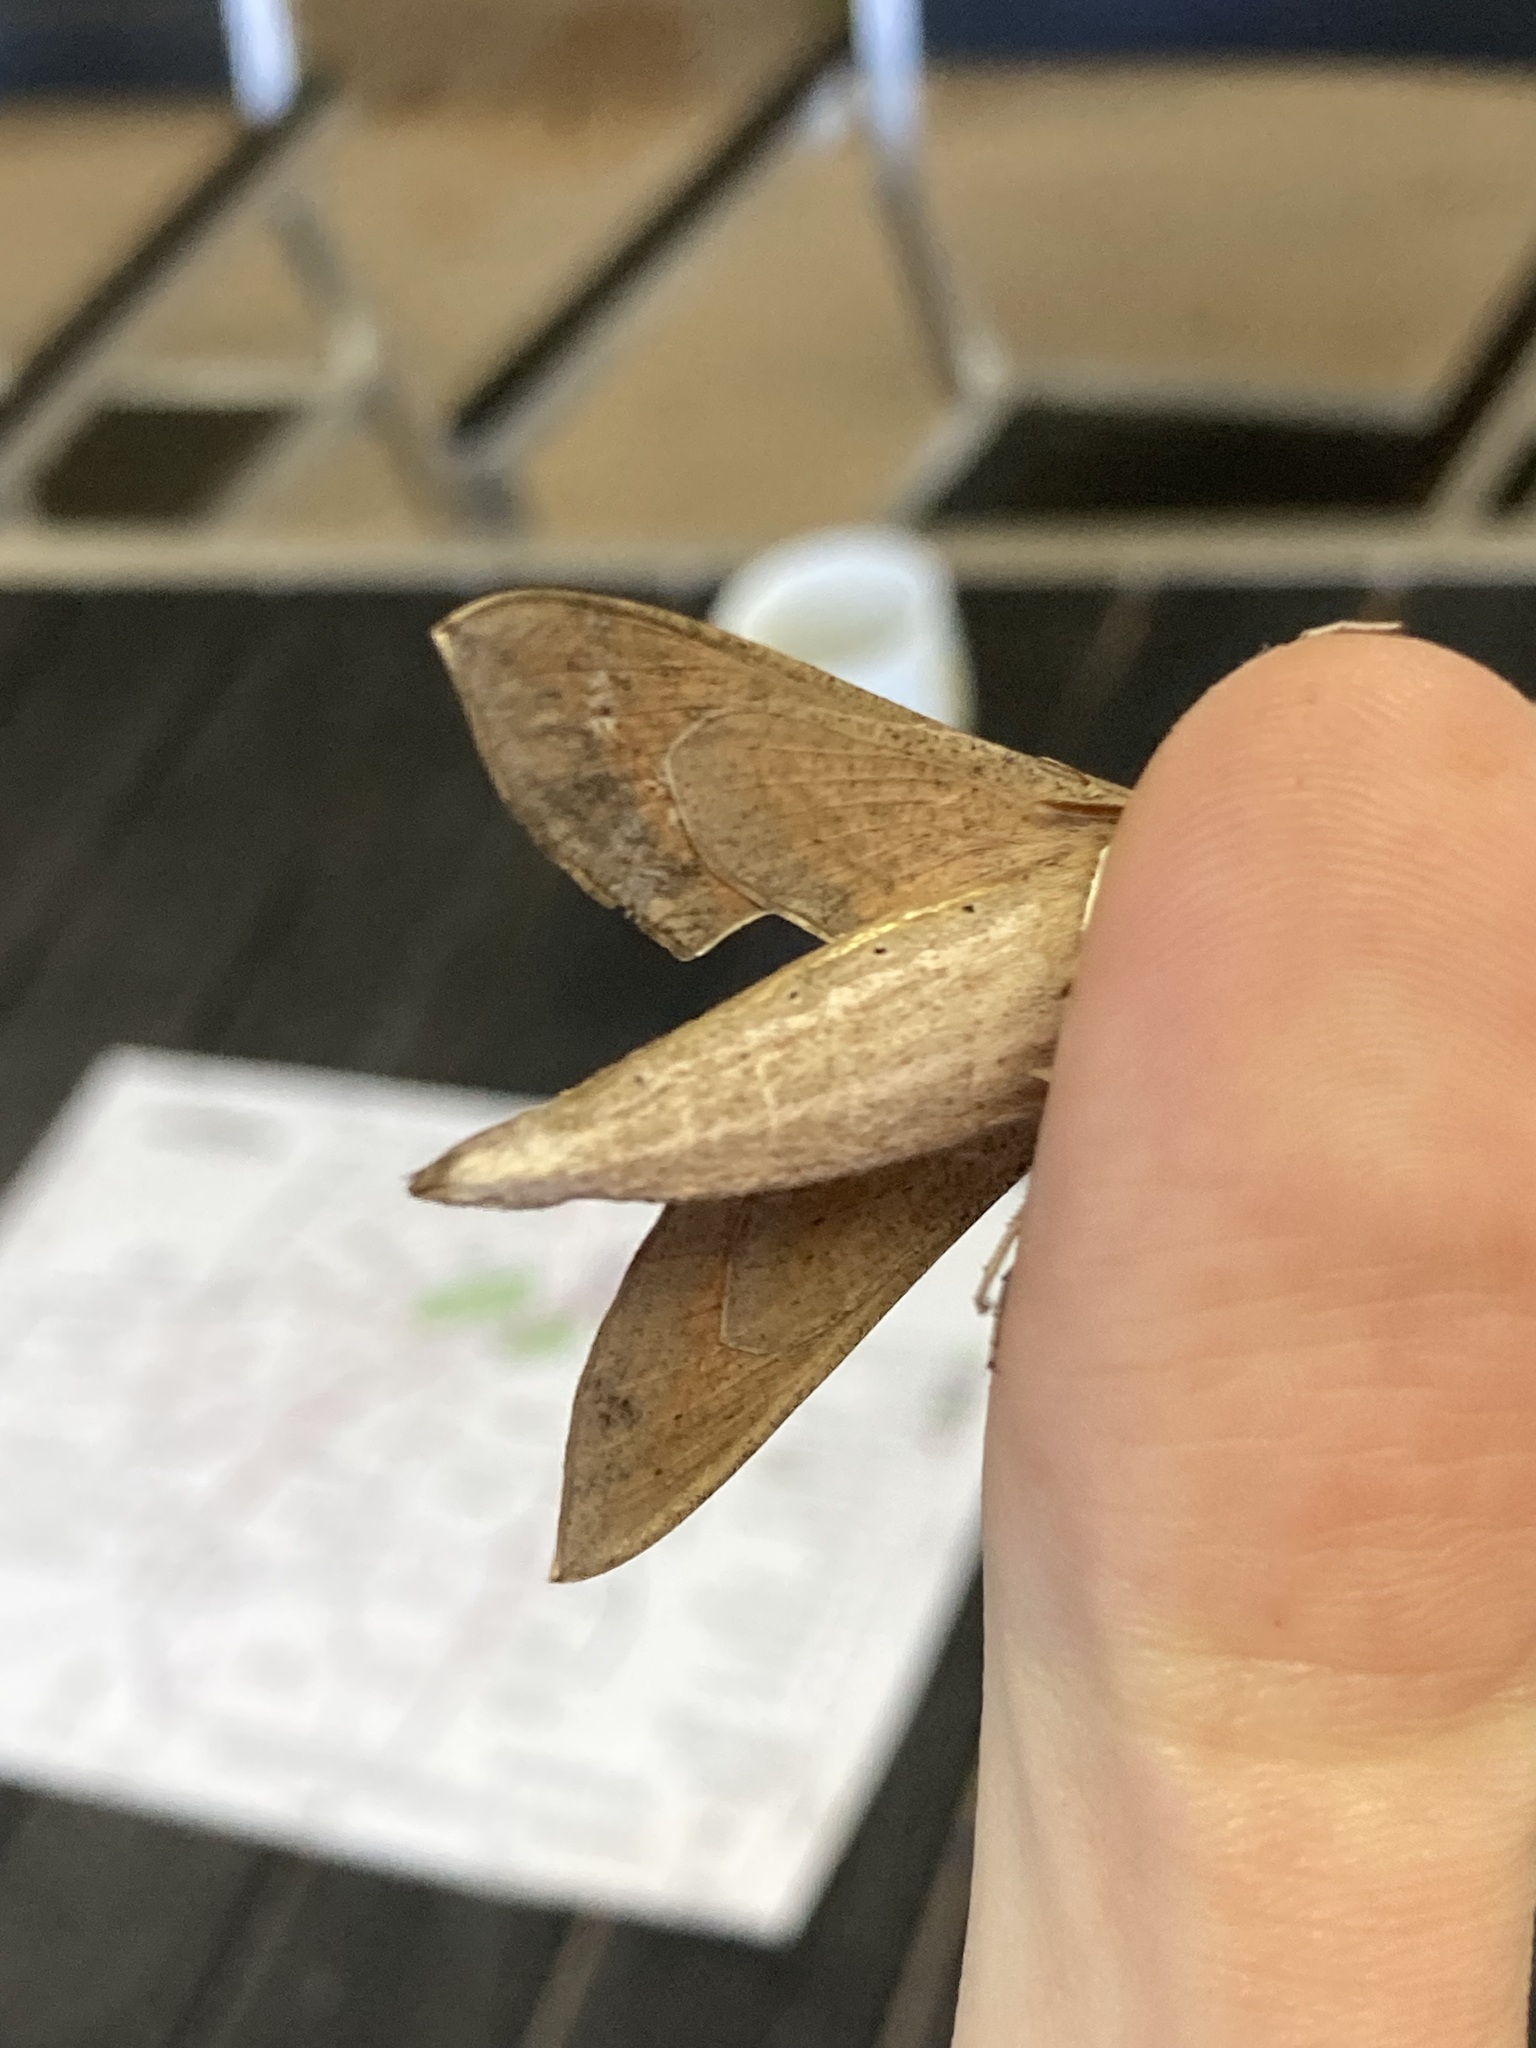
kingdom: Animalia
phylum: Arthropoda
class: Insecta
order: Lepidoptera
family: Sphingidae
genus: Hippotion
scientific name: Hippotion celerio
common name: Silver-striped hawk-moth
